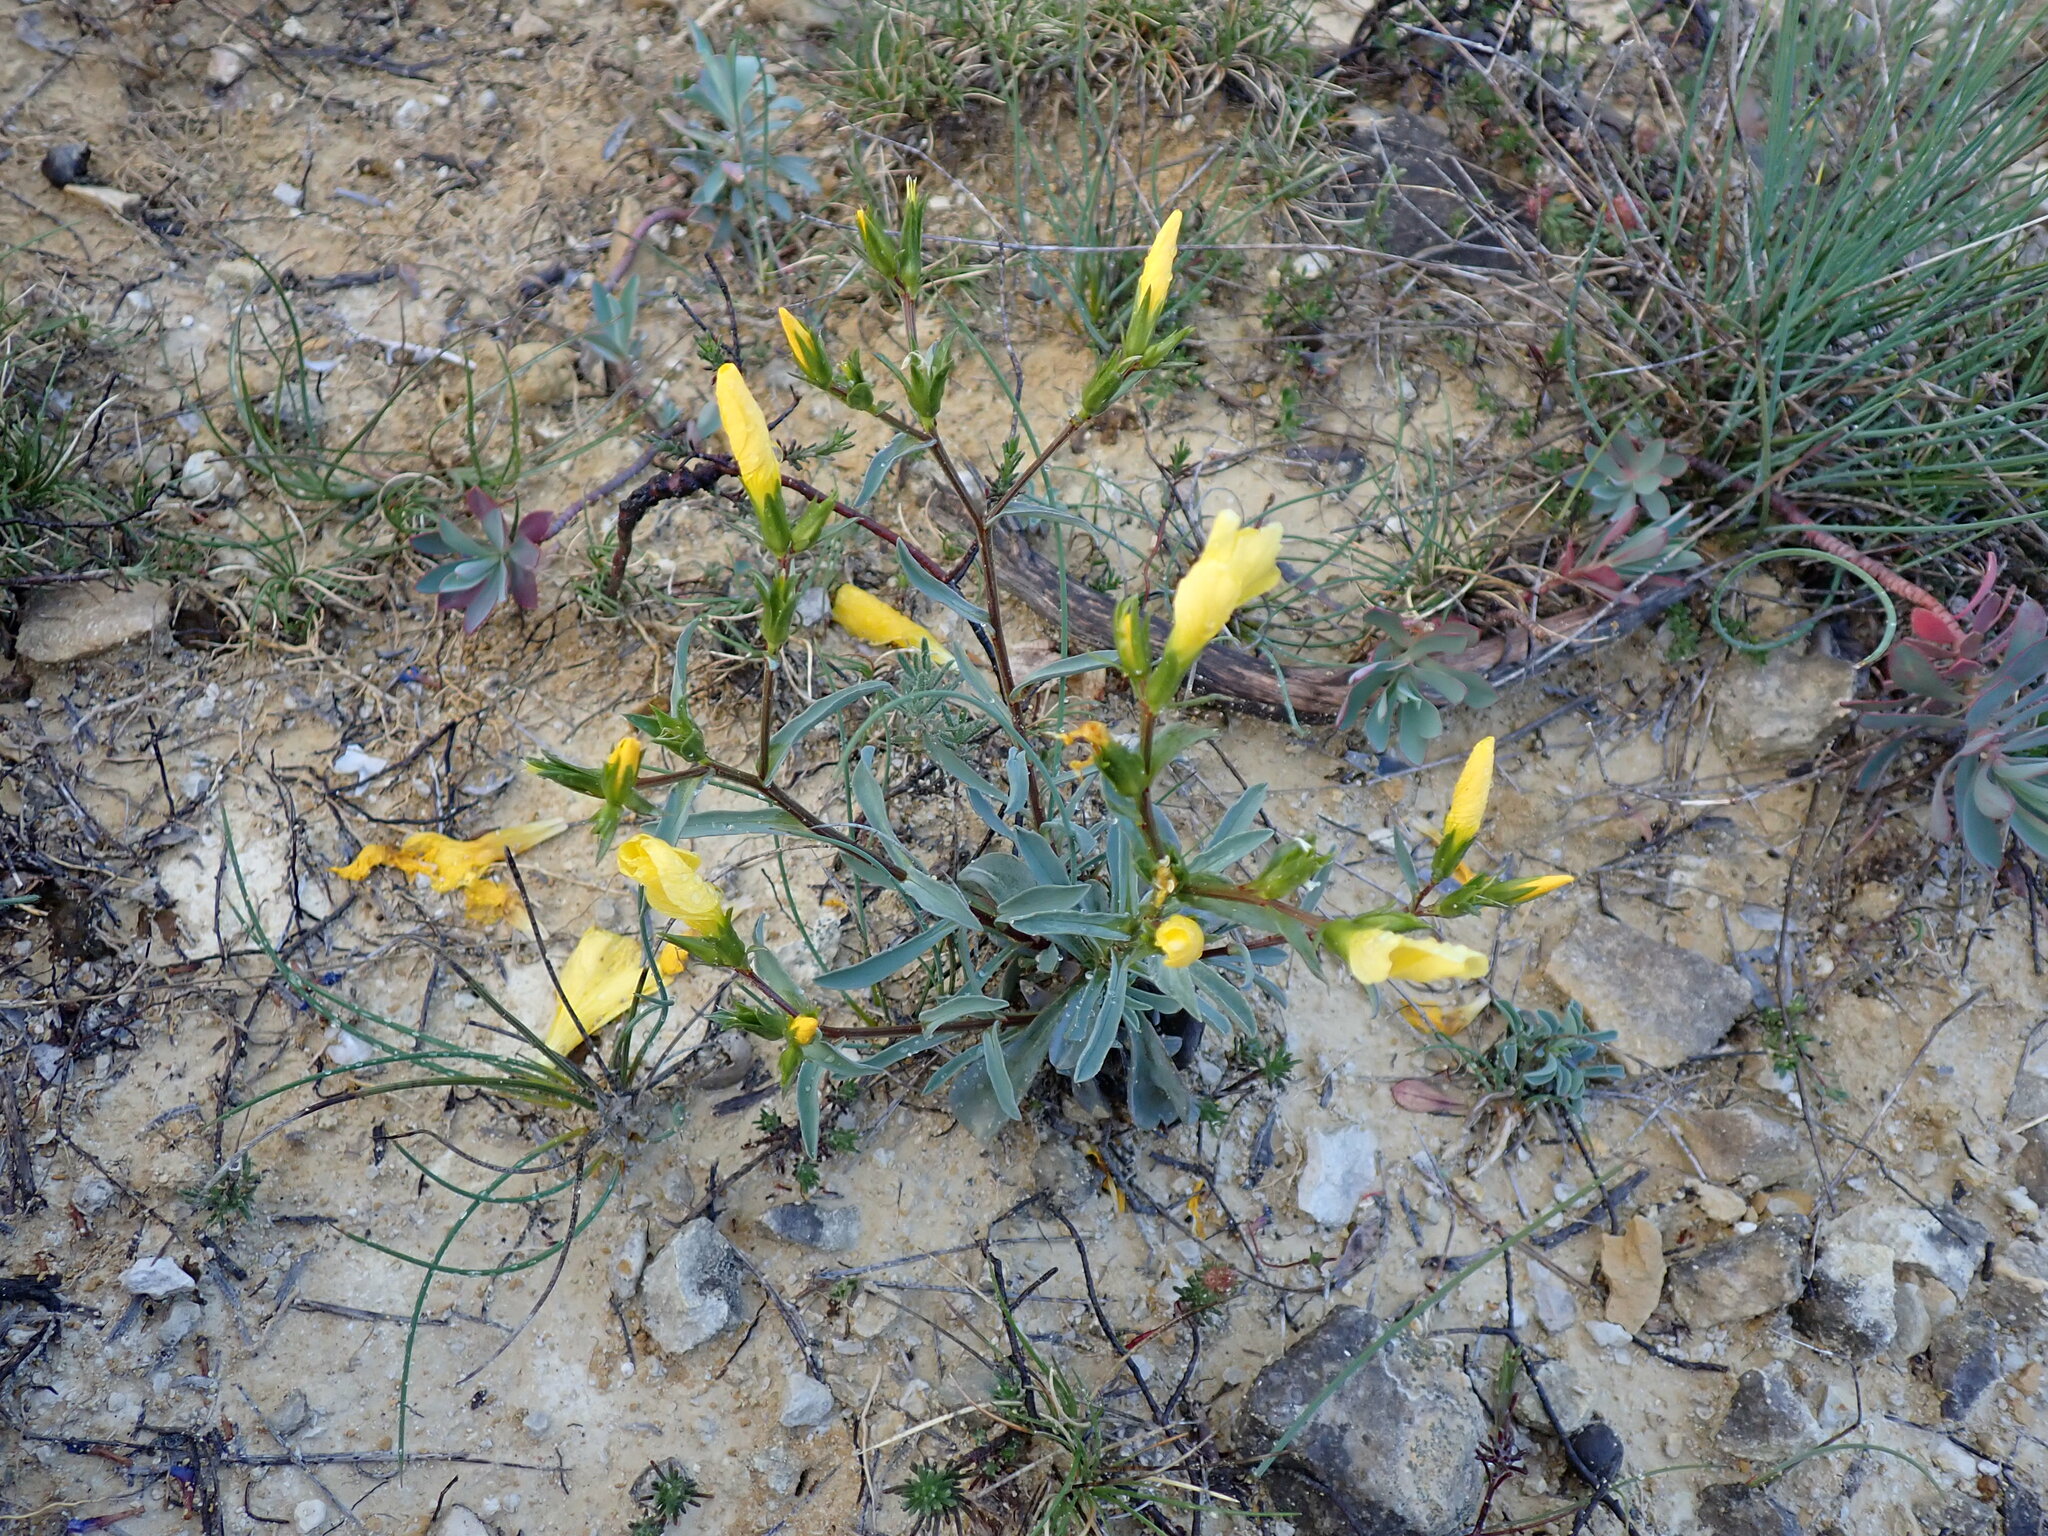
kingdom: Plantae
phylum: Tracheophyta
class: Magnoliopsida
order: Malpighiales
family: Linaceae
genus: Linum
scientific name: Linum campanulatum
